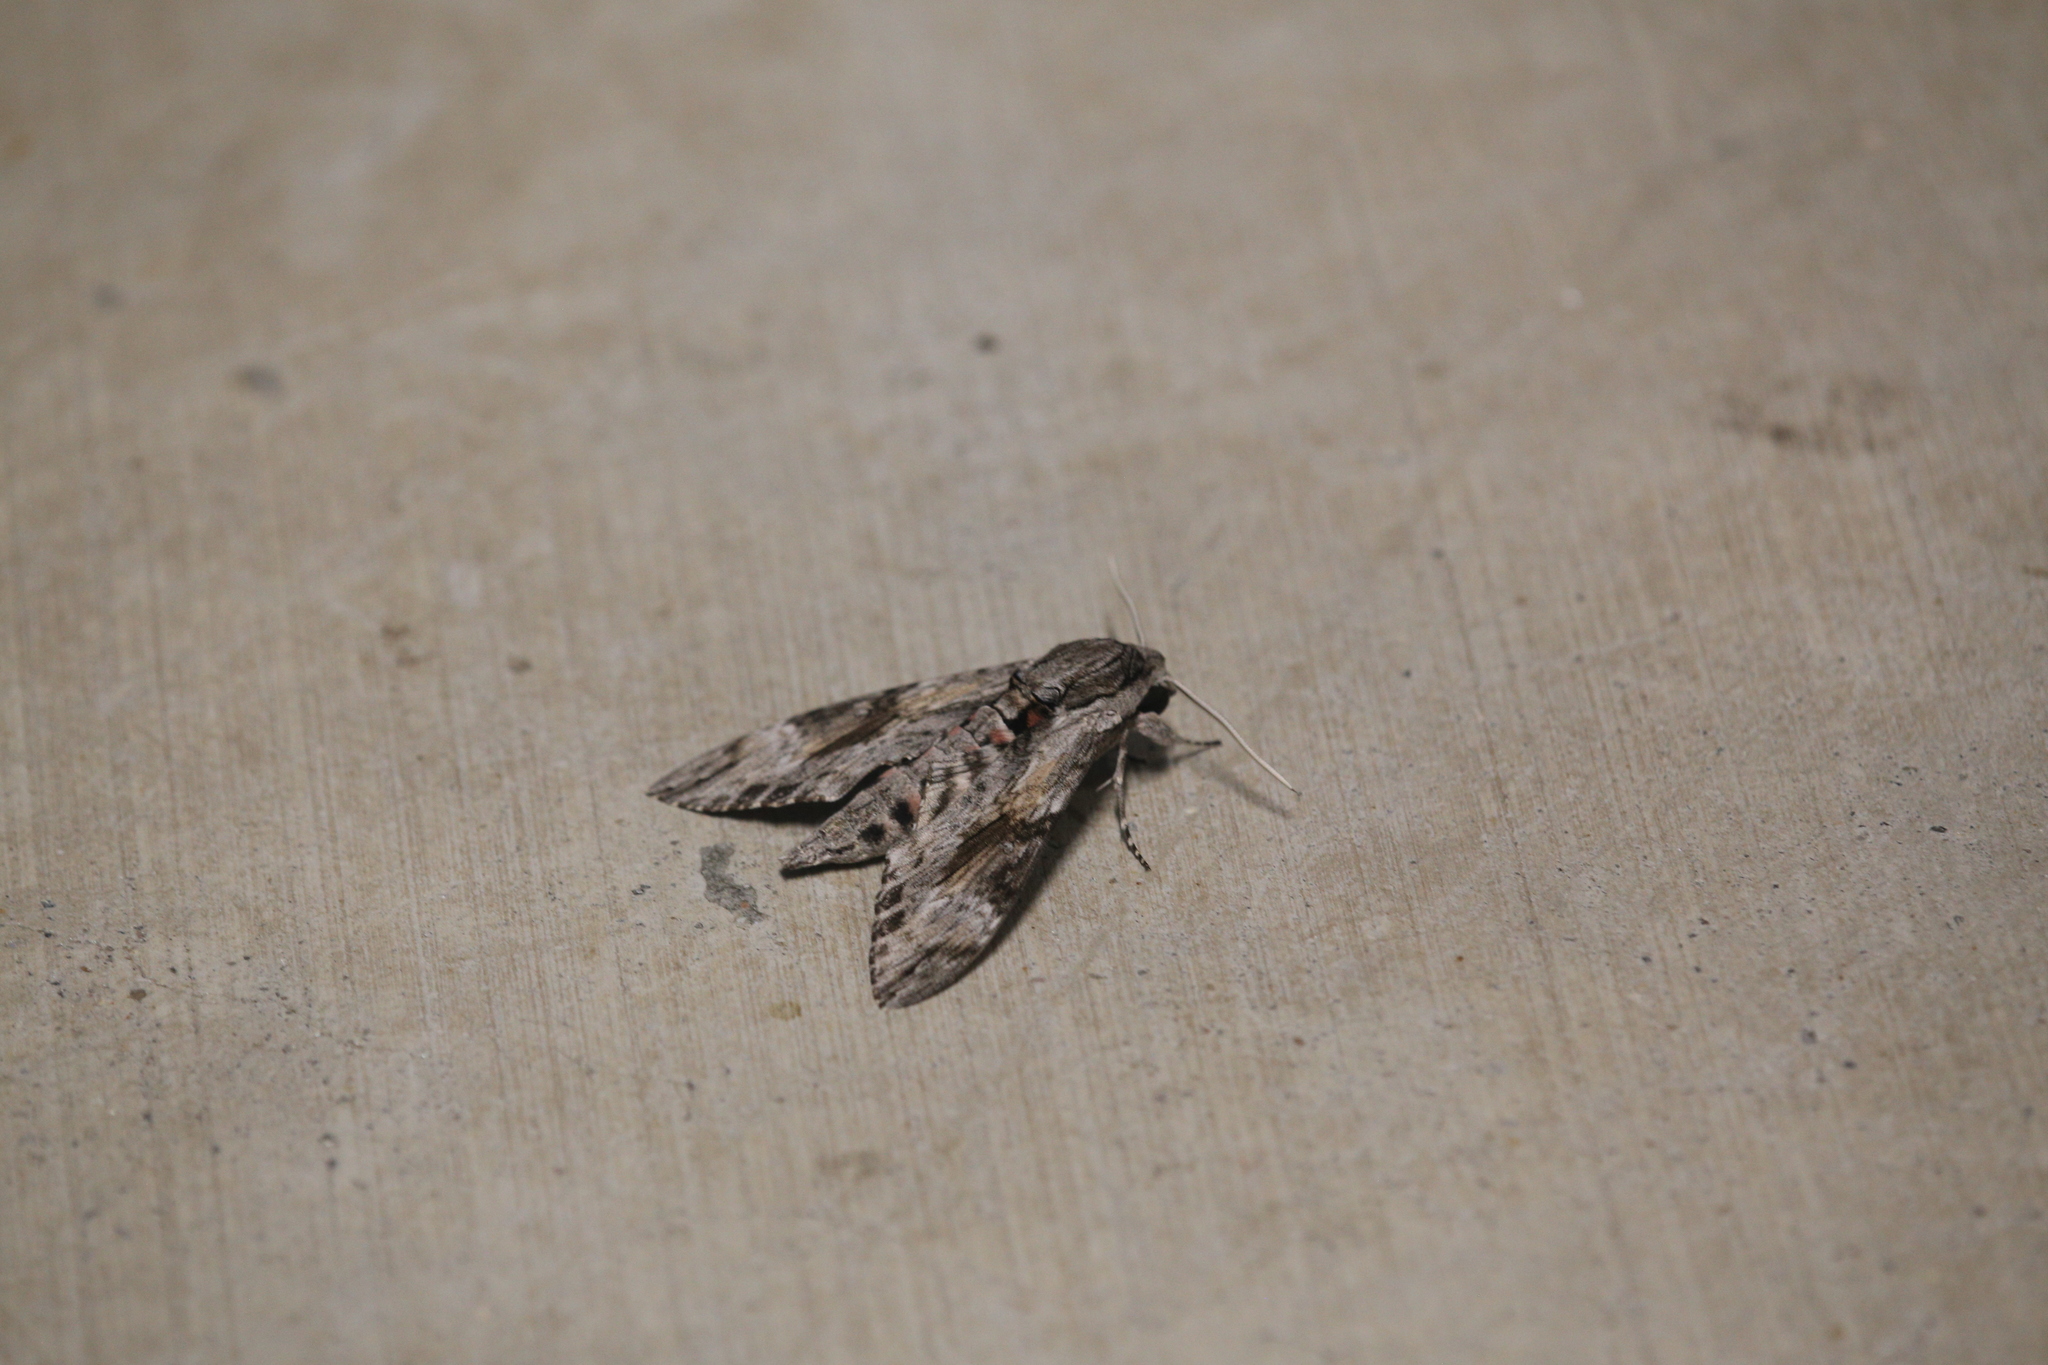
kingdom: Animalia
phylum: Arthropoda
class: Insecta
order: Lepidoptera
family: Sphingidae
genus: Agrius
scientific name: Agrius convolvuli
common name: Convolvulus hawkmoth
